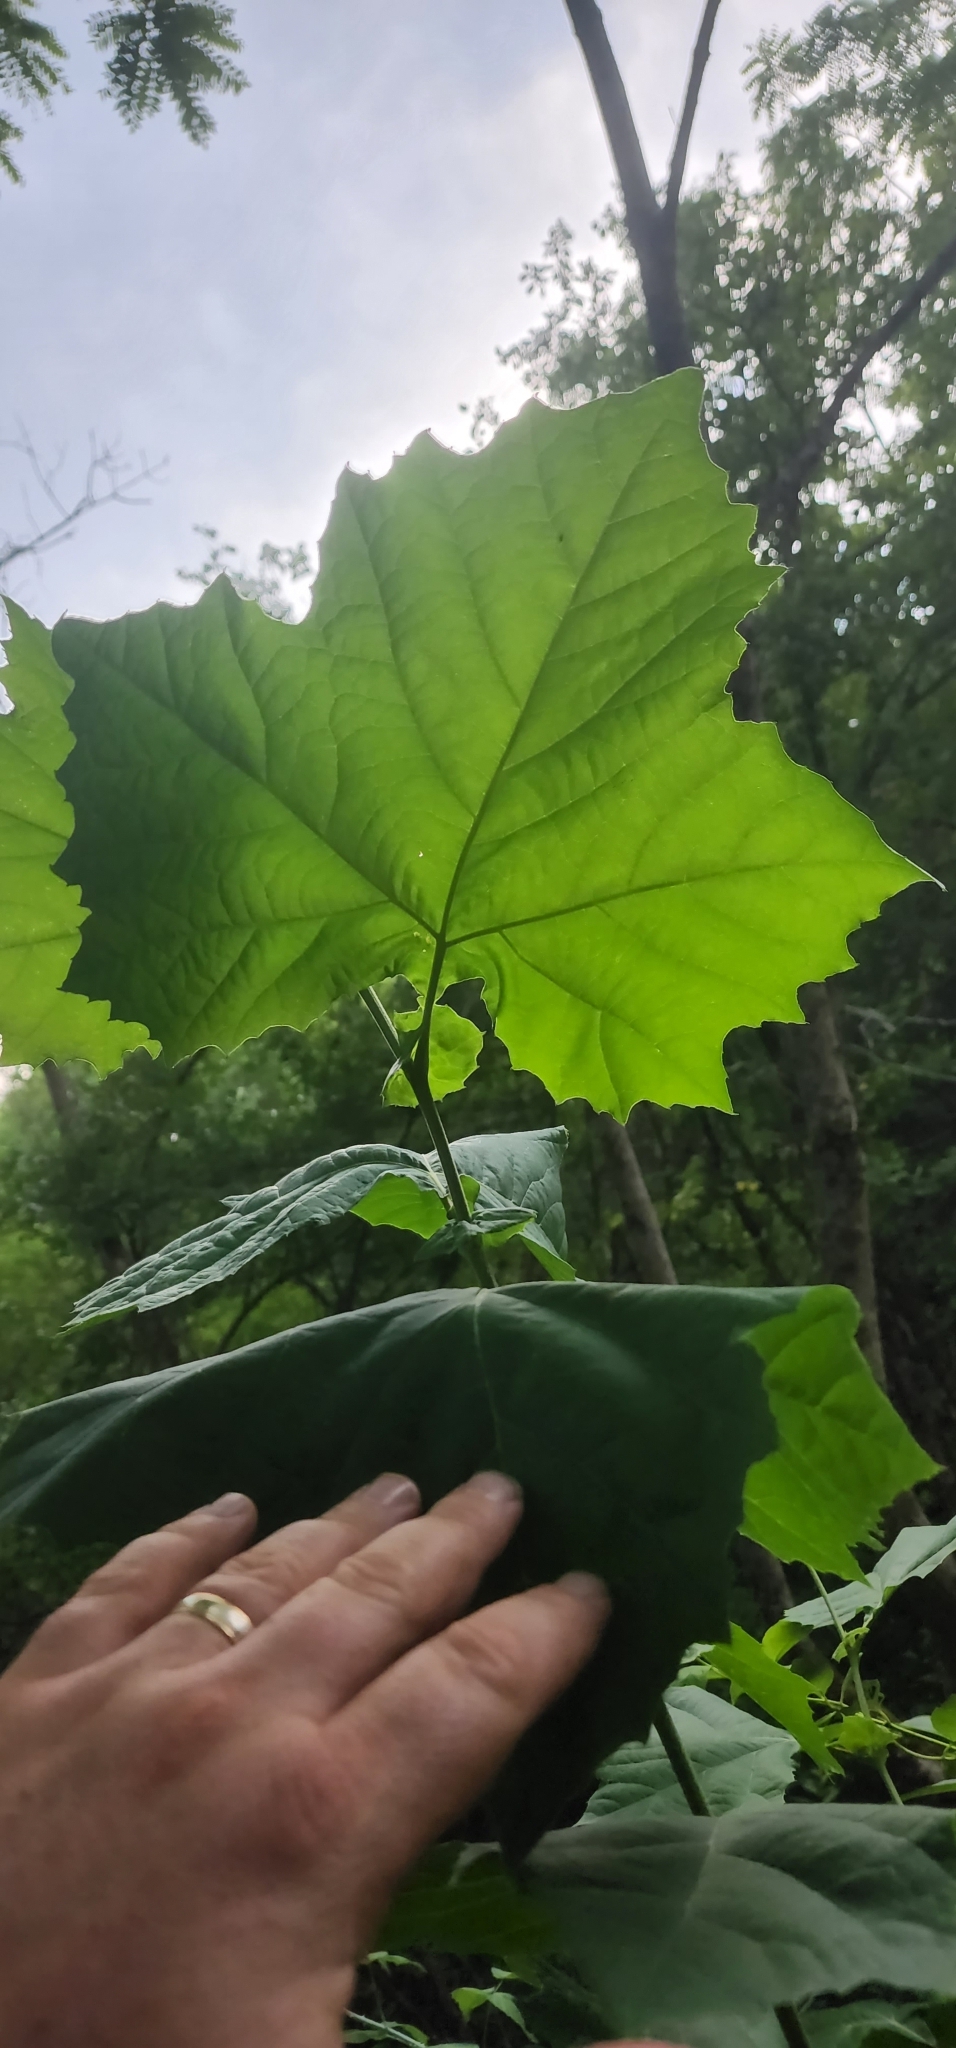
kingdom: Plantae
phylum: Tracheophyta
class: Magnoliopsida
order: Proteales
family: Platanaceae
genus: Platanus
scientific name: Platanus occidentalis
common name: American sycamore
